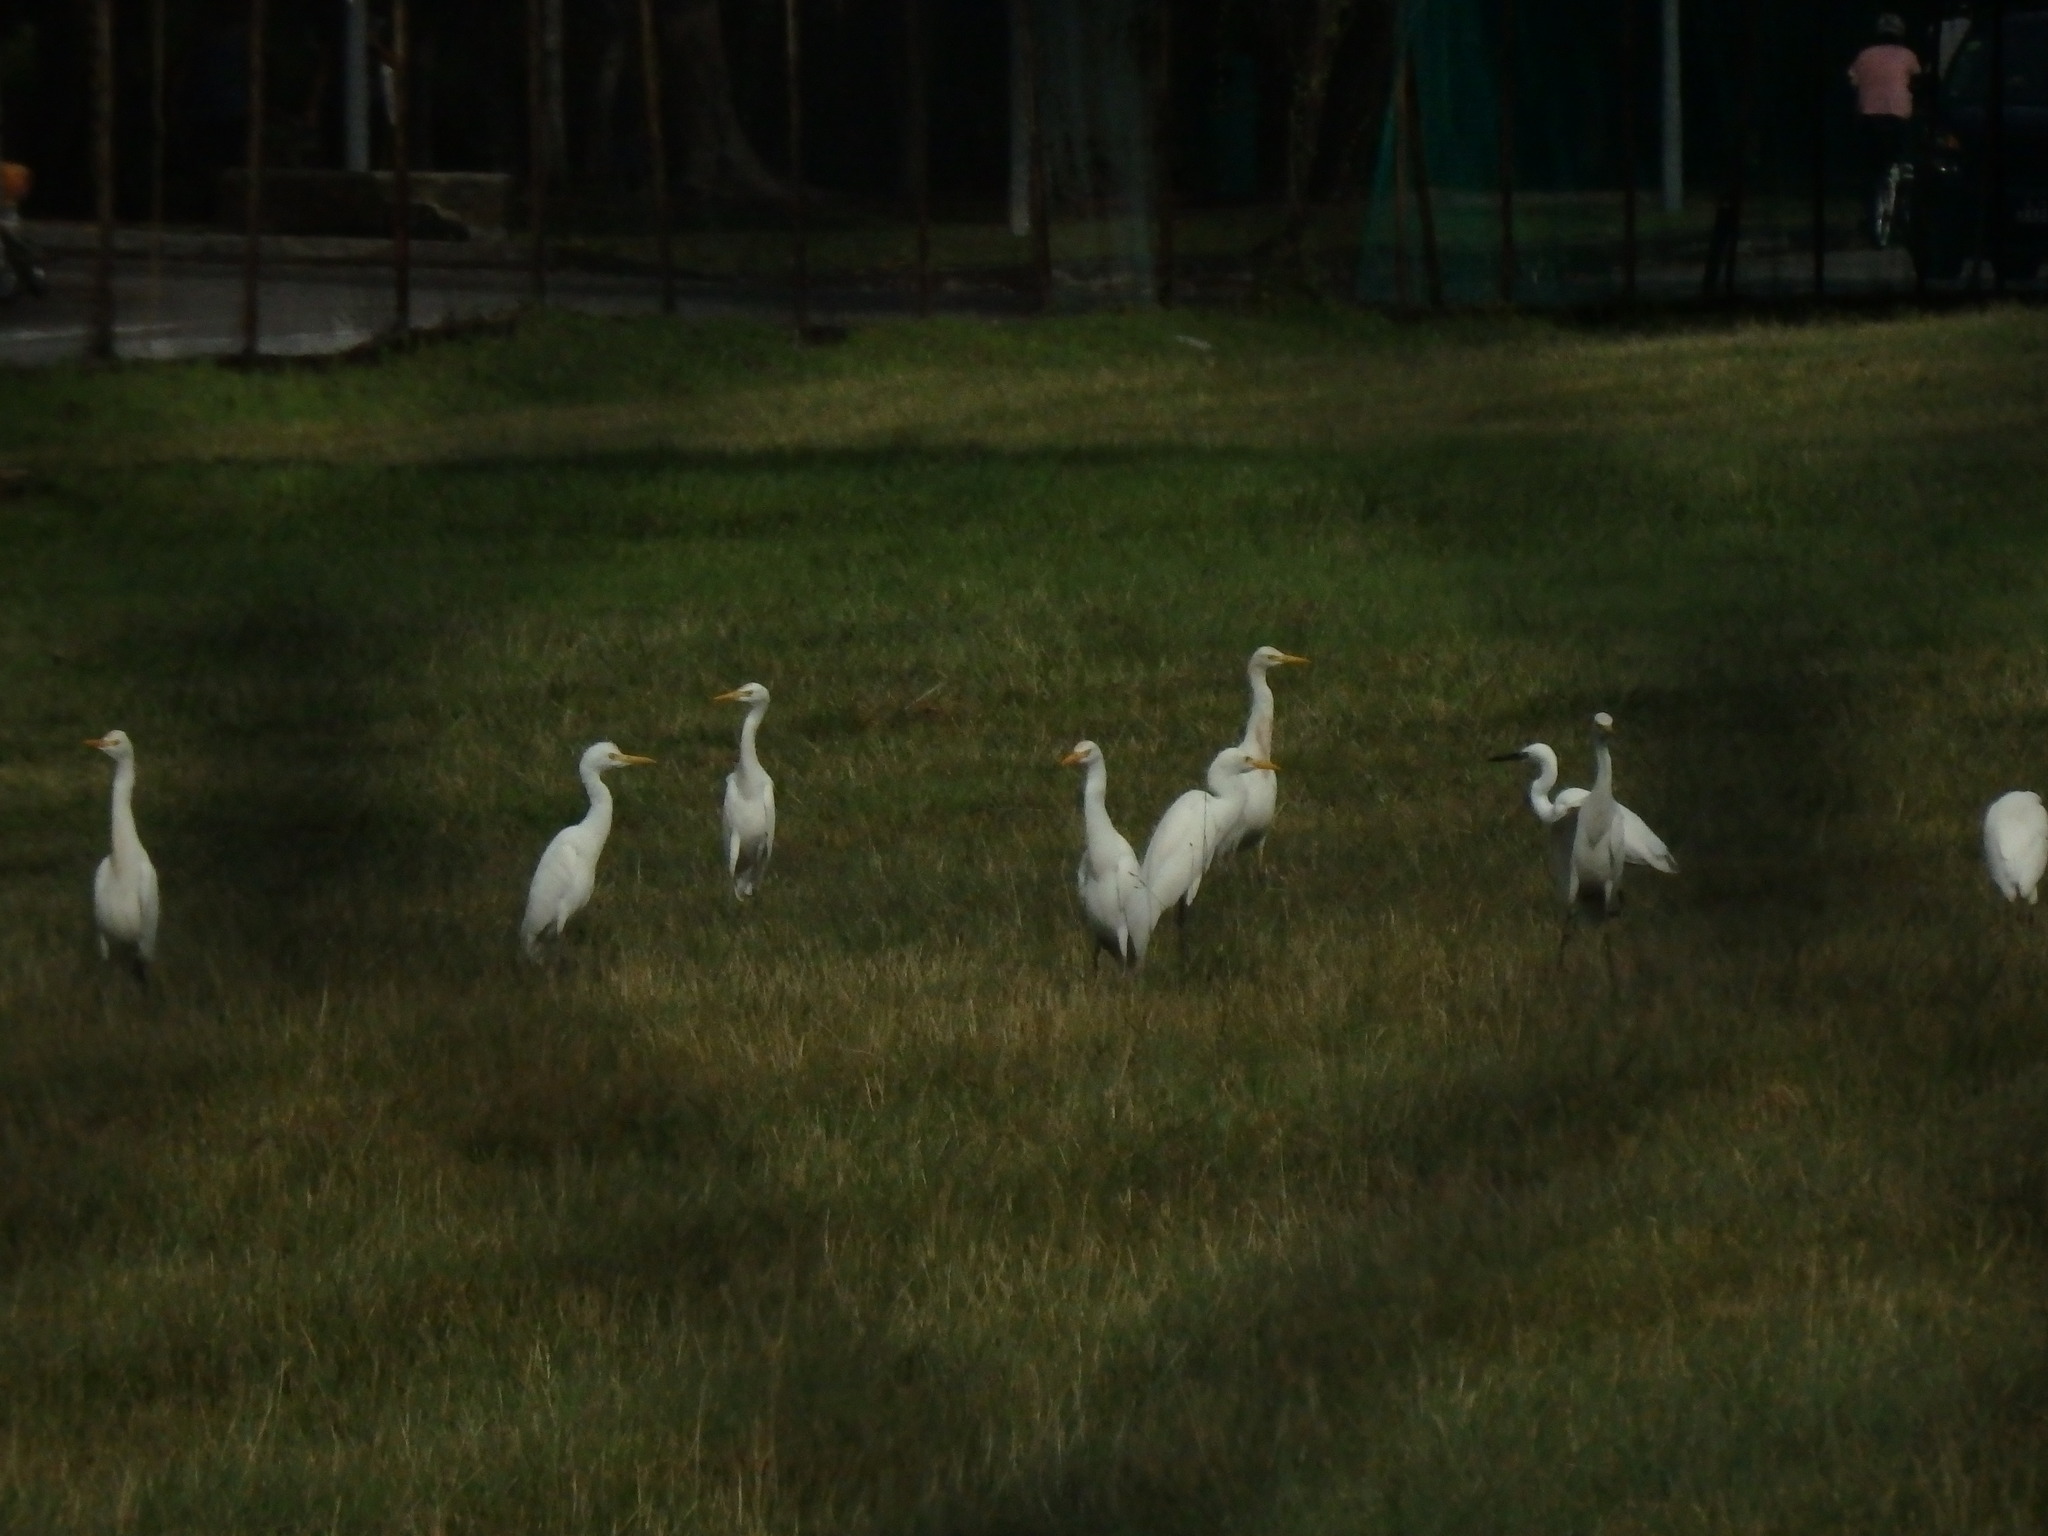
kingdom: Animalia
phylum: Chordata
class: Aves
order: Pelecaniformes
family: Ardeidae
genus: Bubulcus
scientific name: Bubulcus coromandus
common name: Eastern cattle egret
